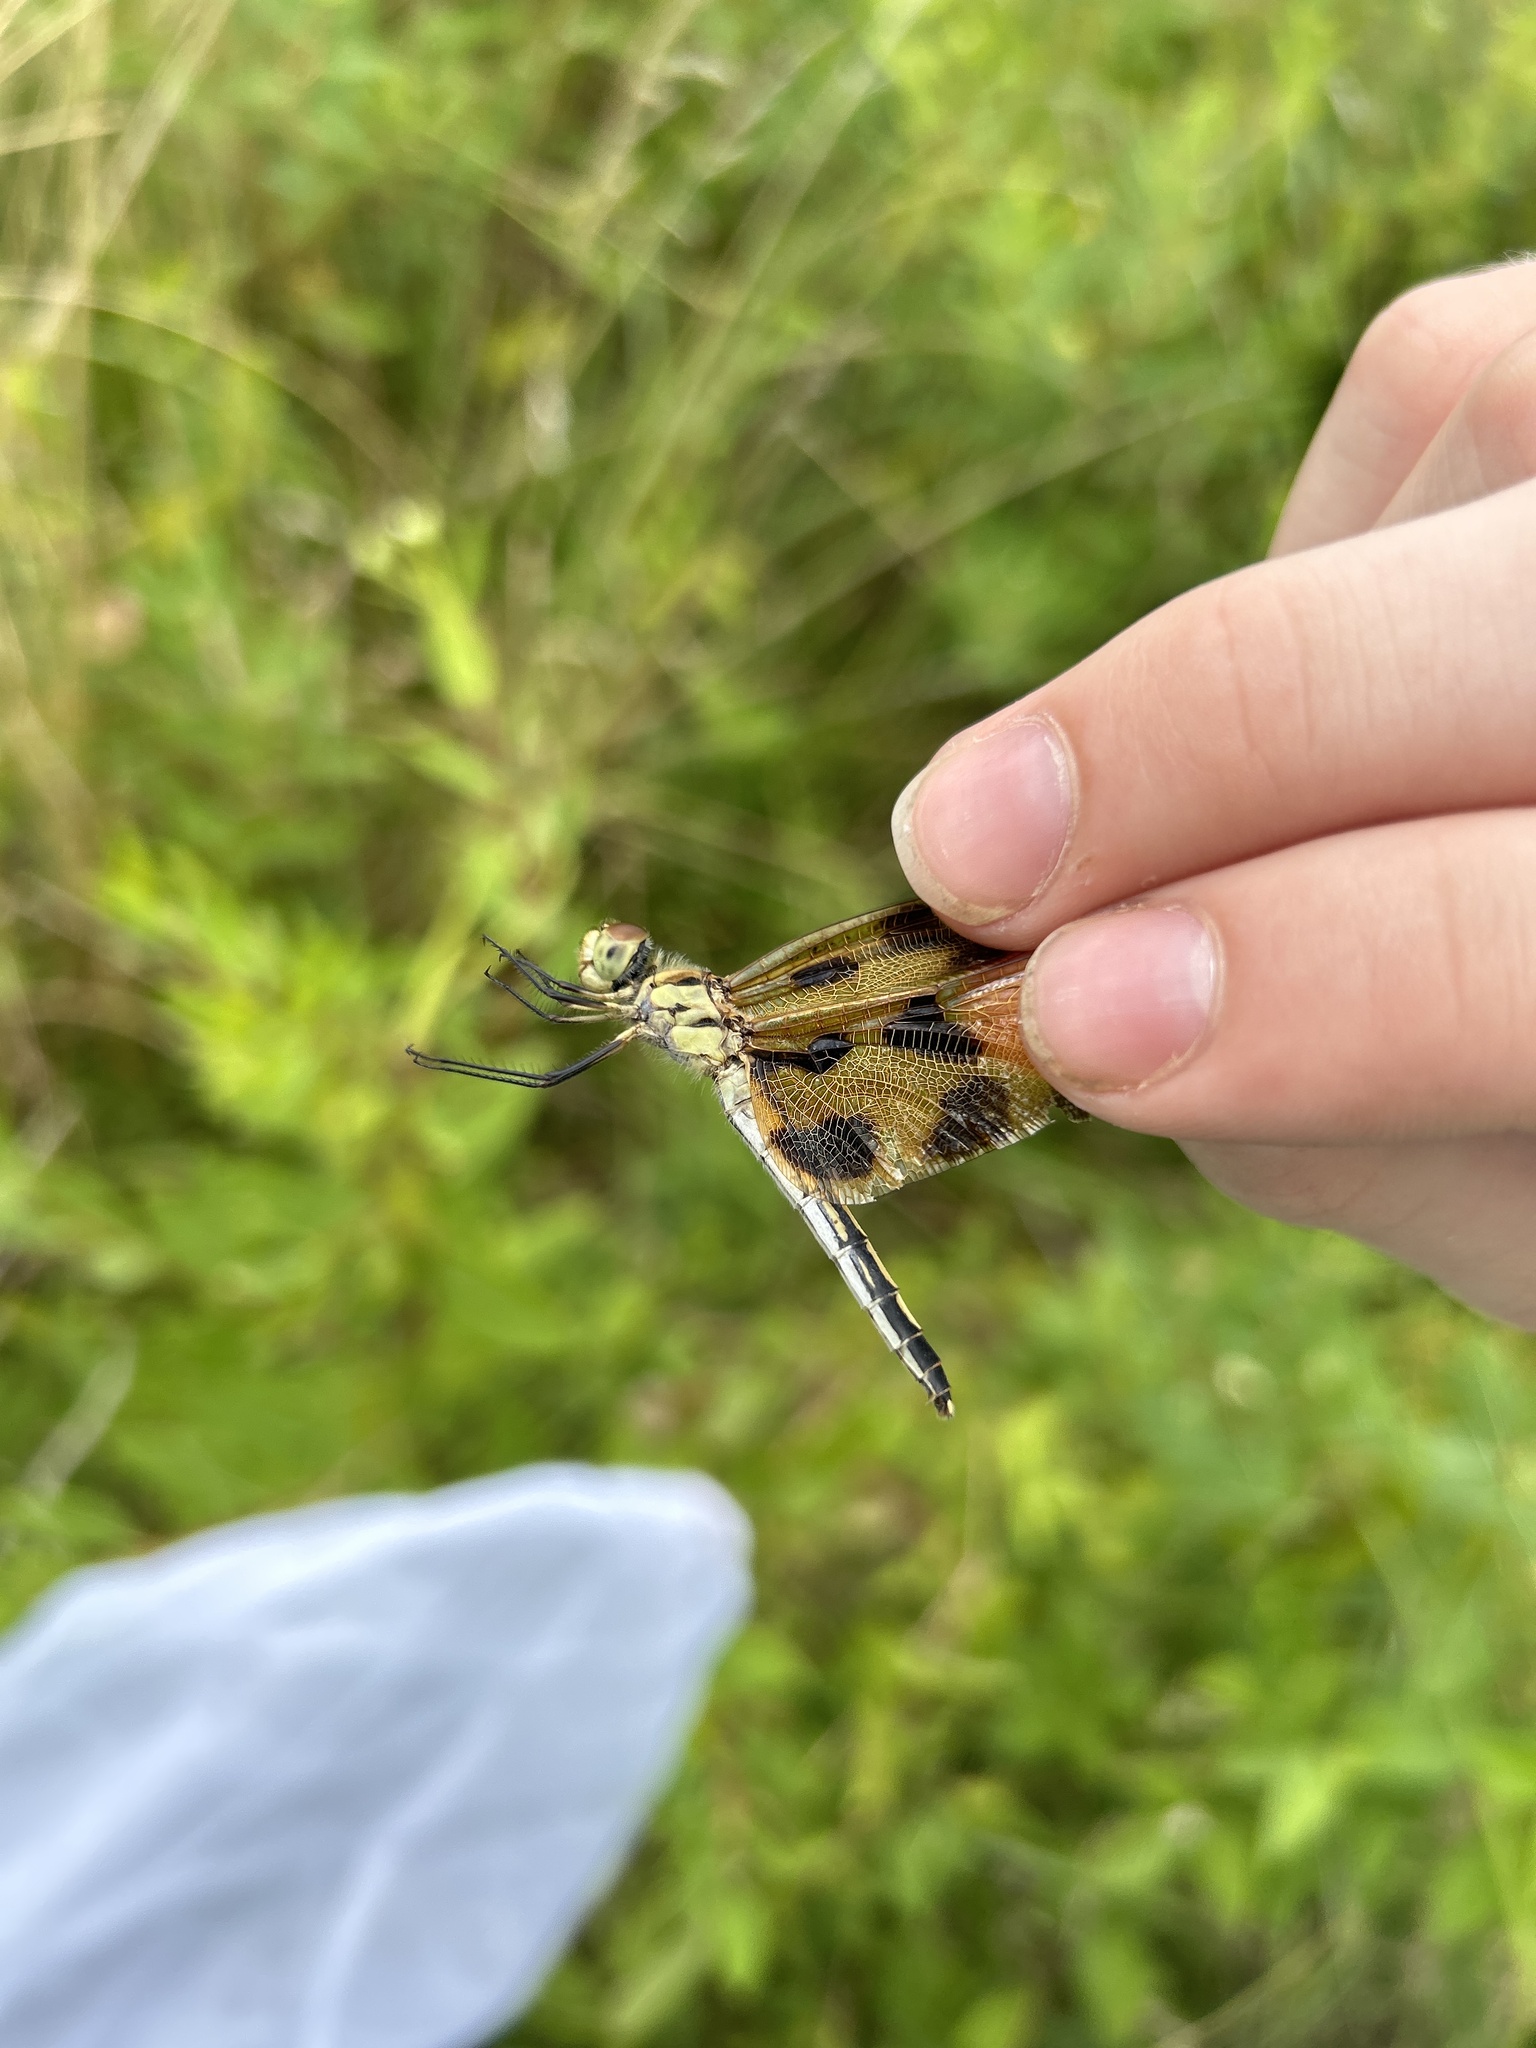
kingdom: Animalia
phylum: Arthropoda
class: Insecta
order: Odonata
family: Libellulidae
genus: Celithemis
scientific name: Celithemis eponina
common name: Halloween pennant
